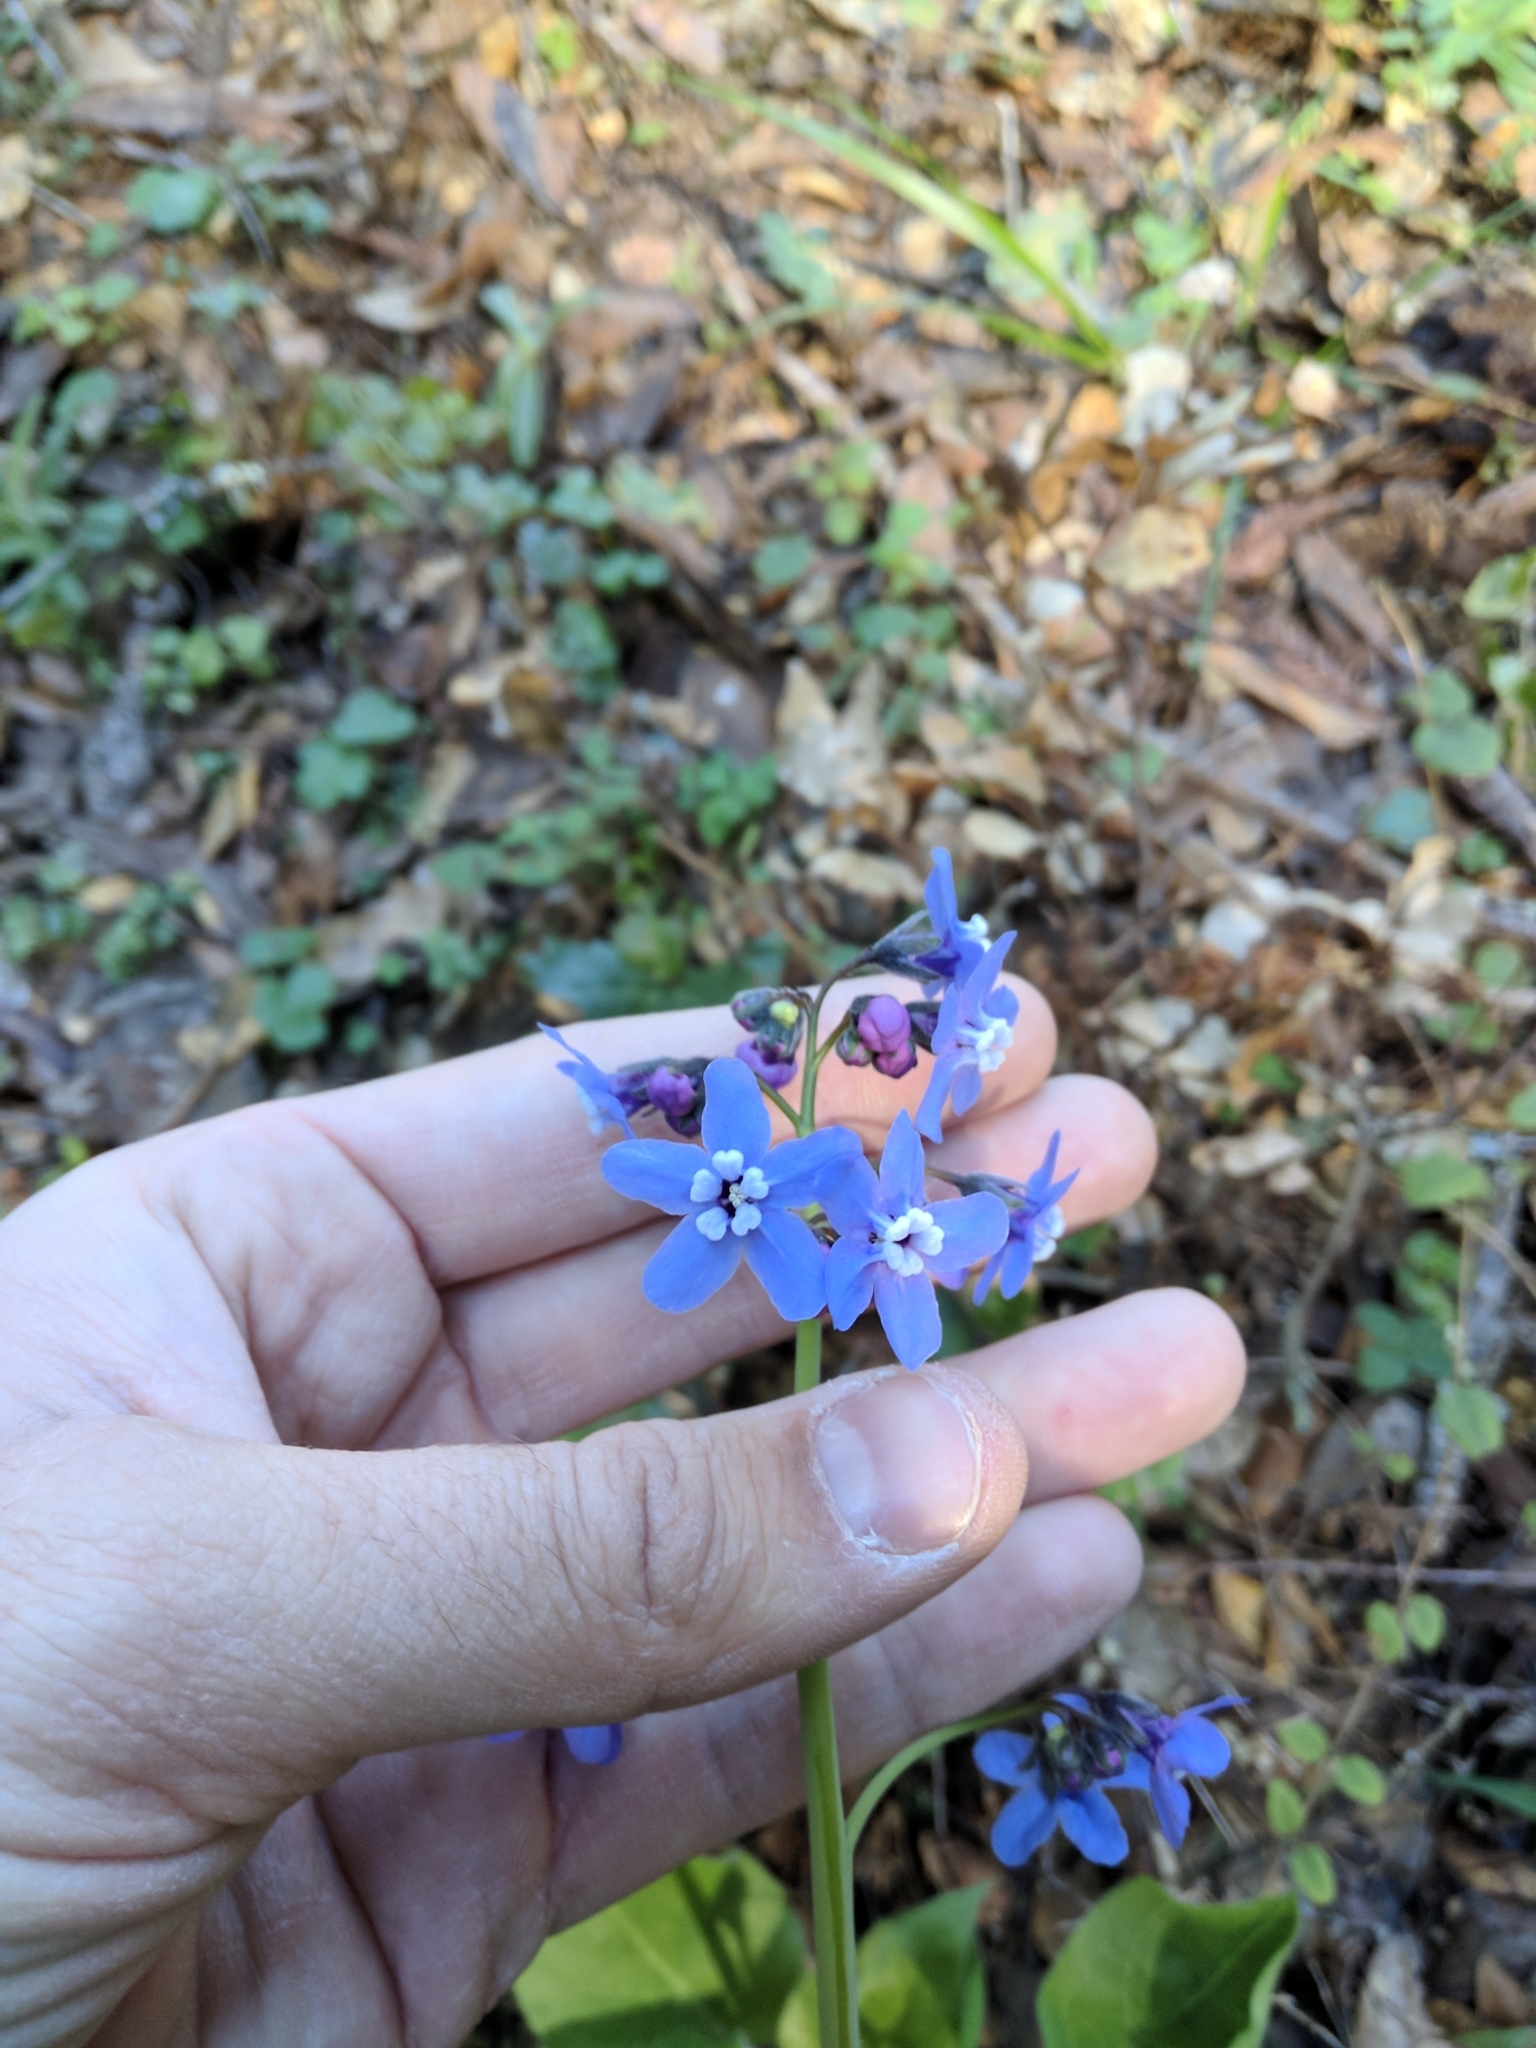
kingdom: Plantae
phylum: Tracheophyta
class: Magnoliopsida
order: Boraginales
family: Boraginaceae
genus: Adelinia
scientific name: Adelinia grande
